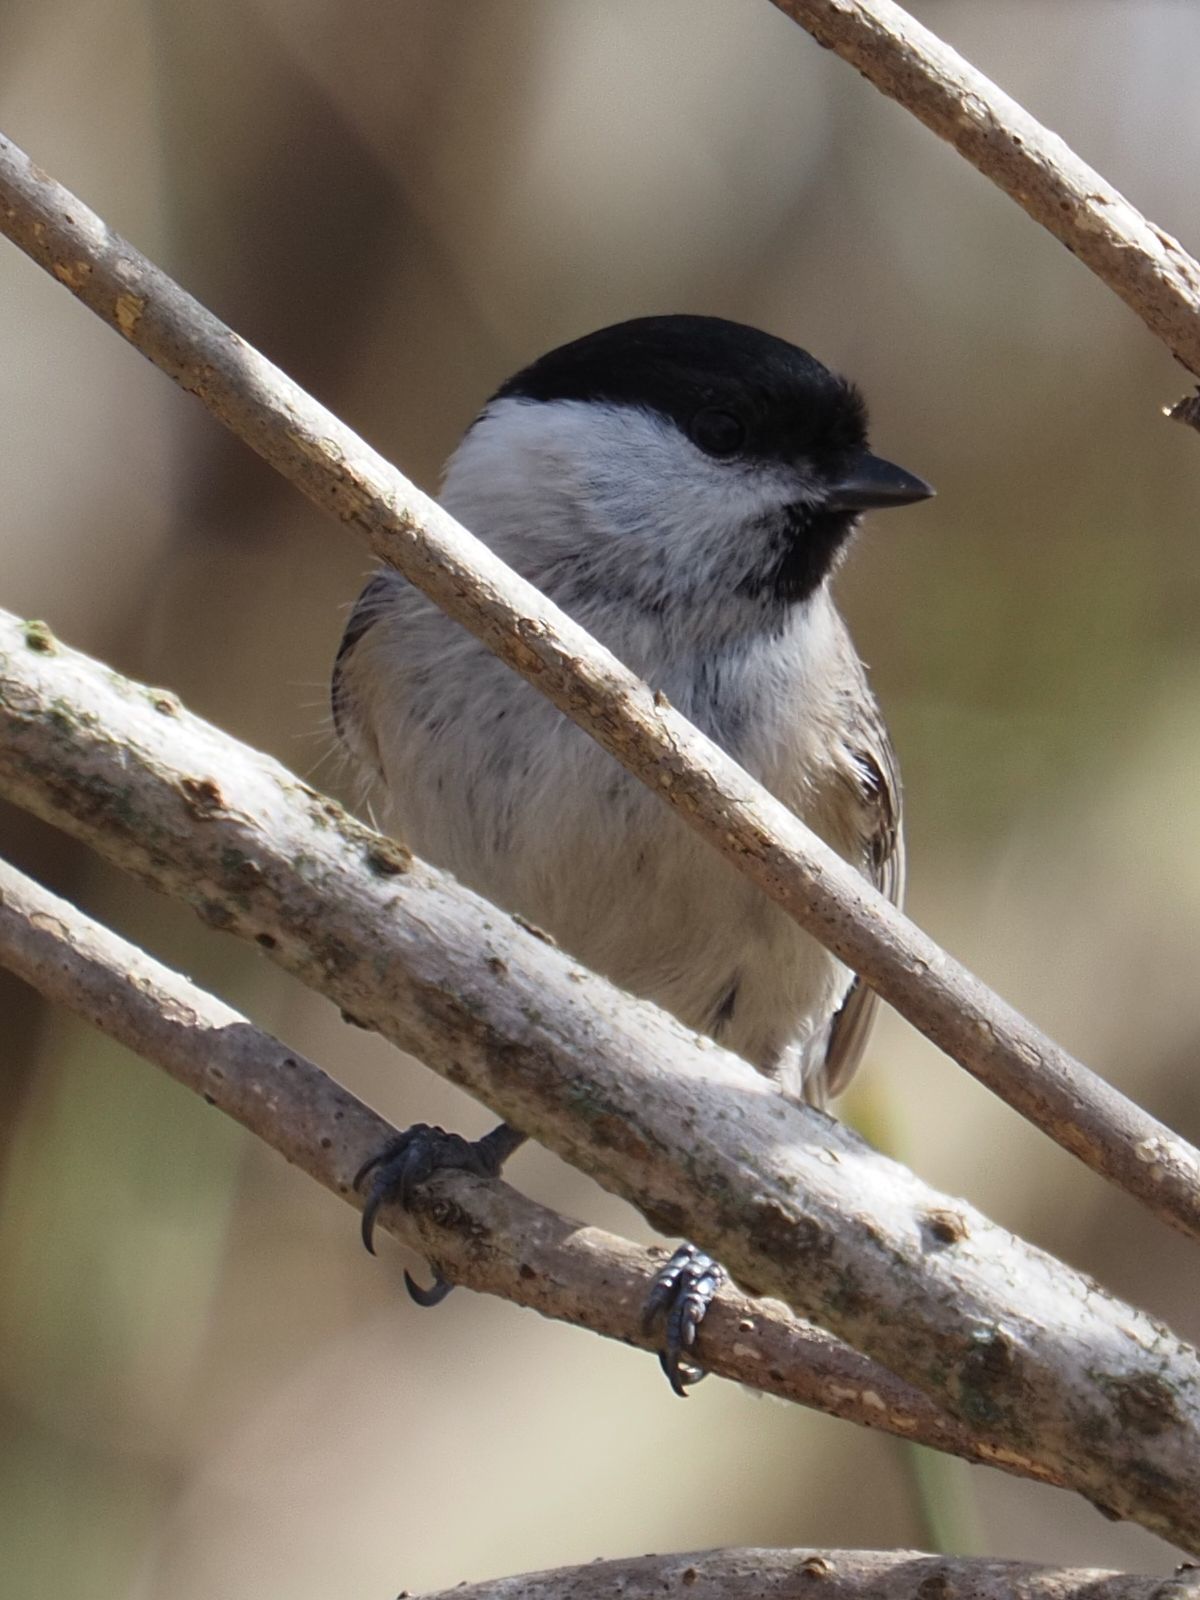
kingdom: Animalia
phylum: Chordata
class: Aves
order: Passeriformes
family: Paridae
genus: Poecile
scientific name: Poecile palustris
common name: Marsh tit
